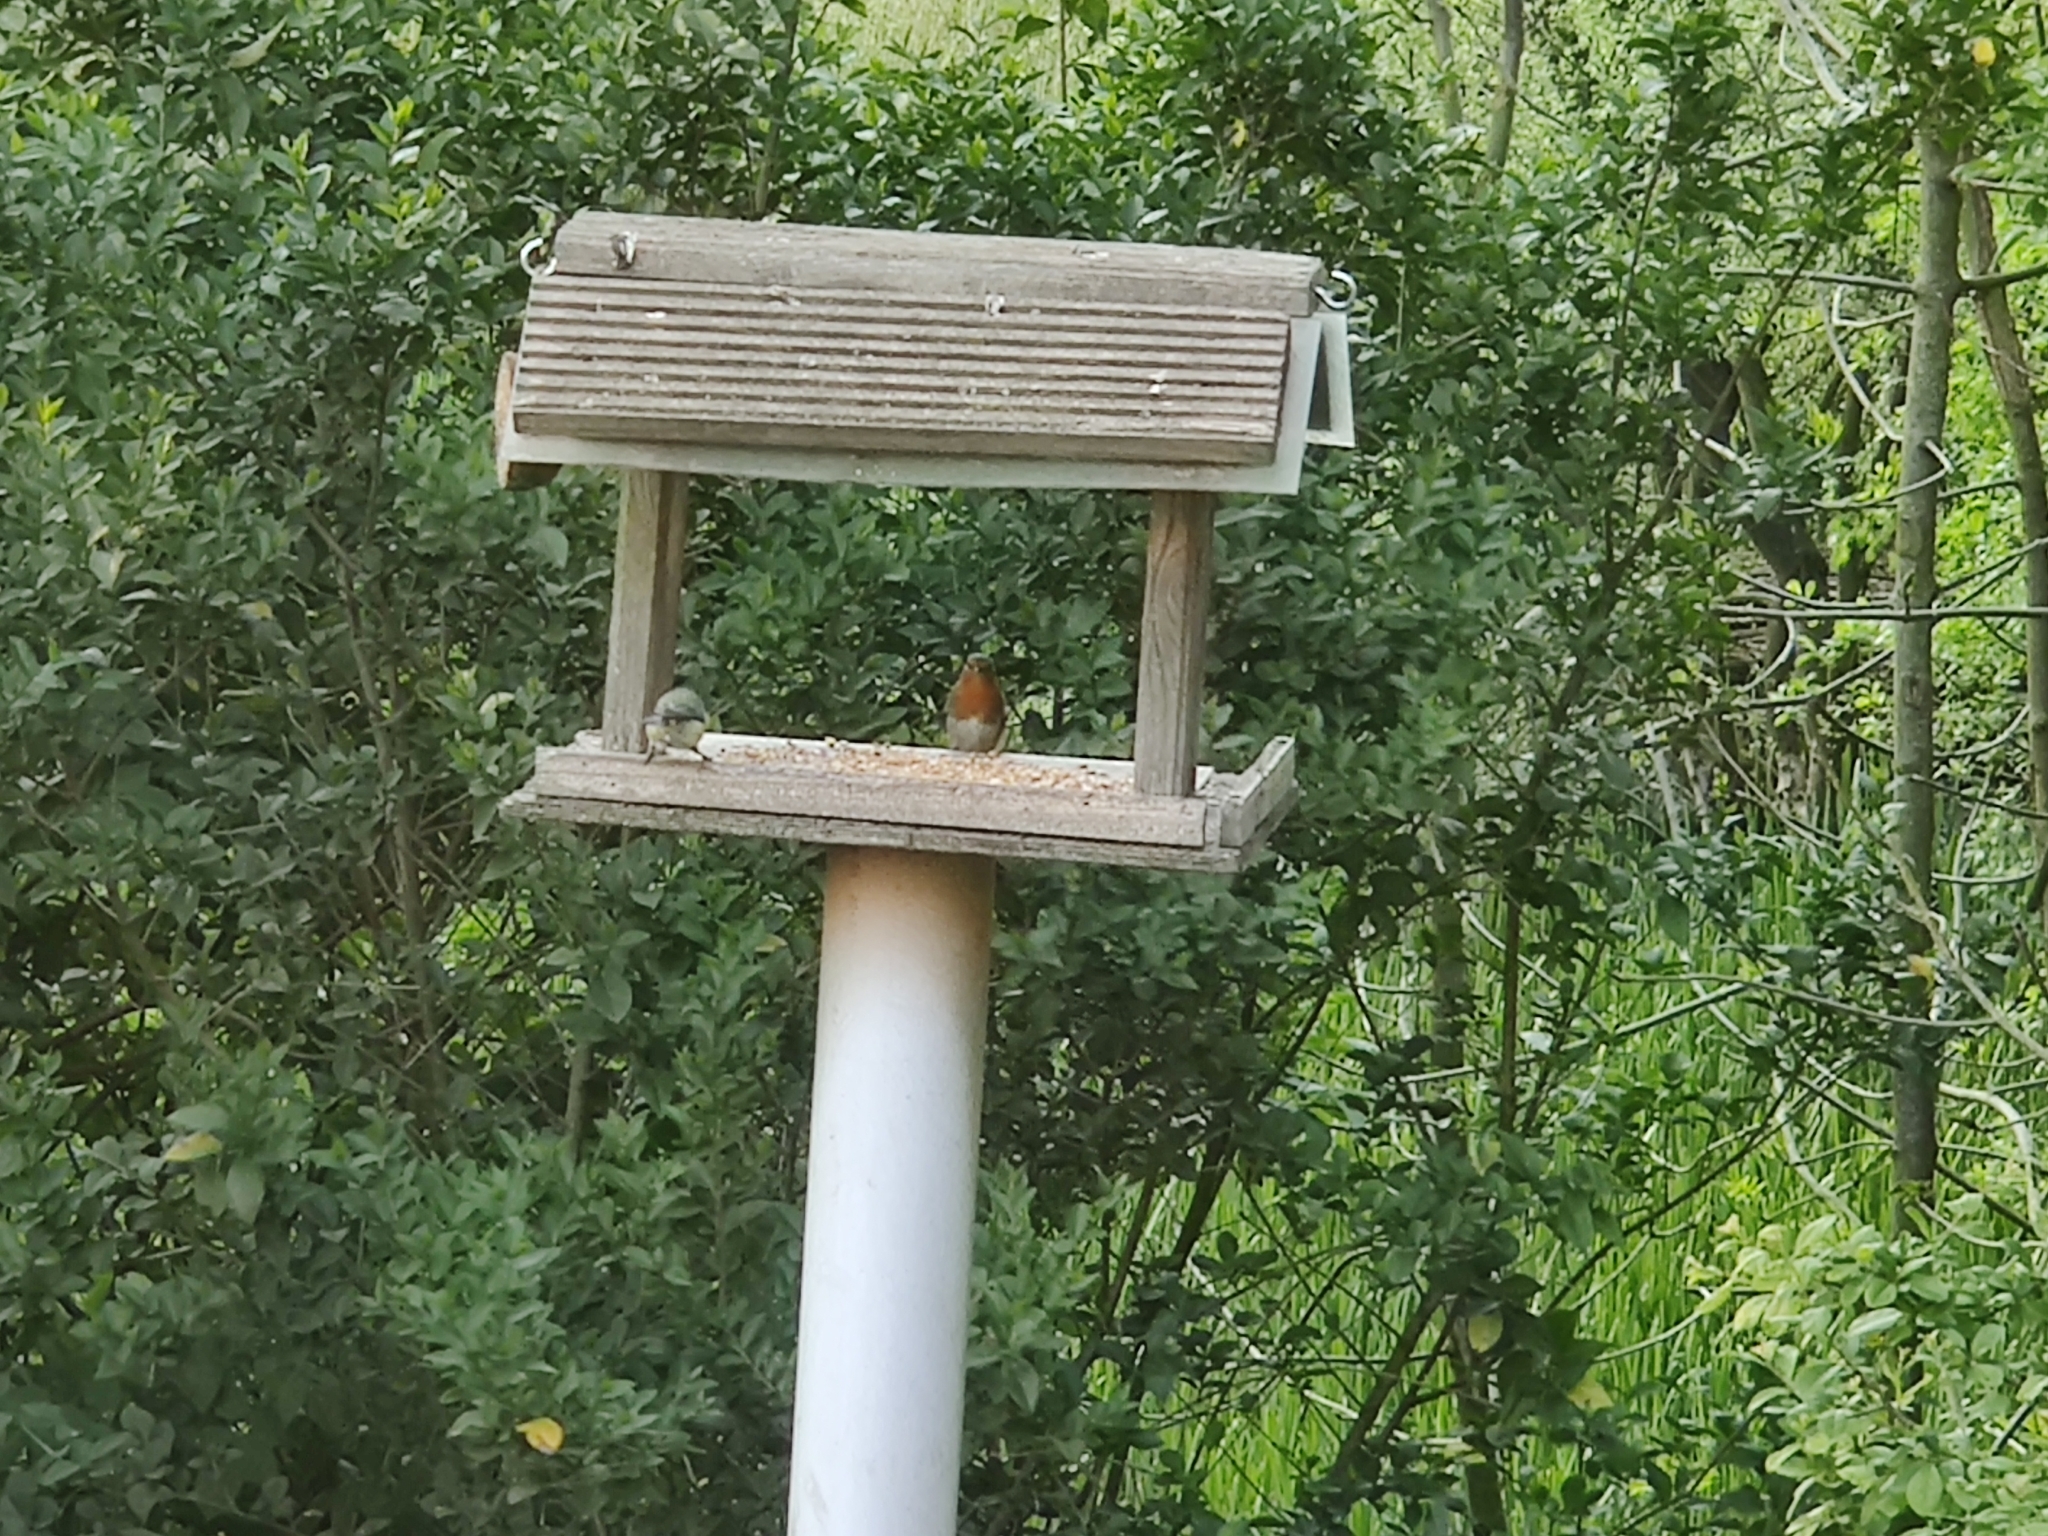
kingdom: Animalia
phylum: Chordata
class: Aves
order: Passeriformes
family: Muscicapidae
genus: Erithacus
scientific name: Erithacus rubecula
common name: European robin
